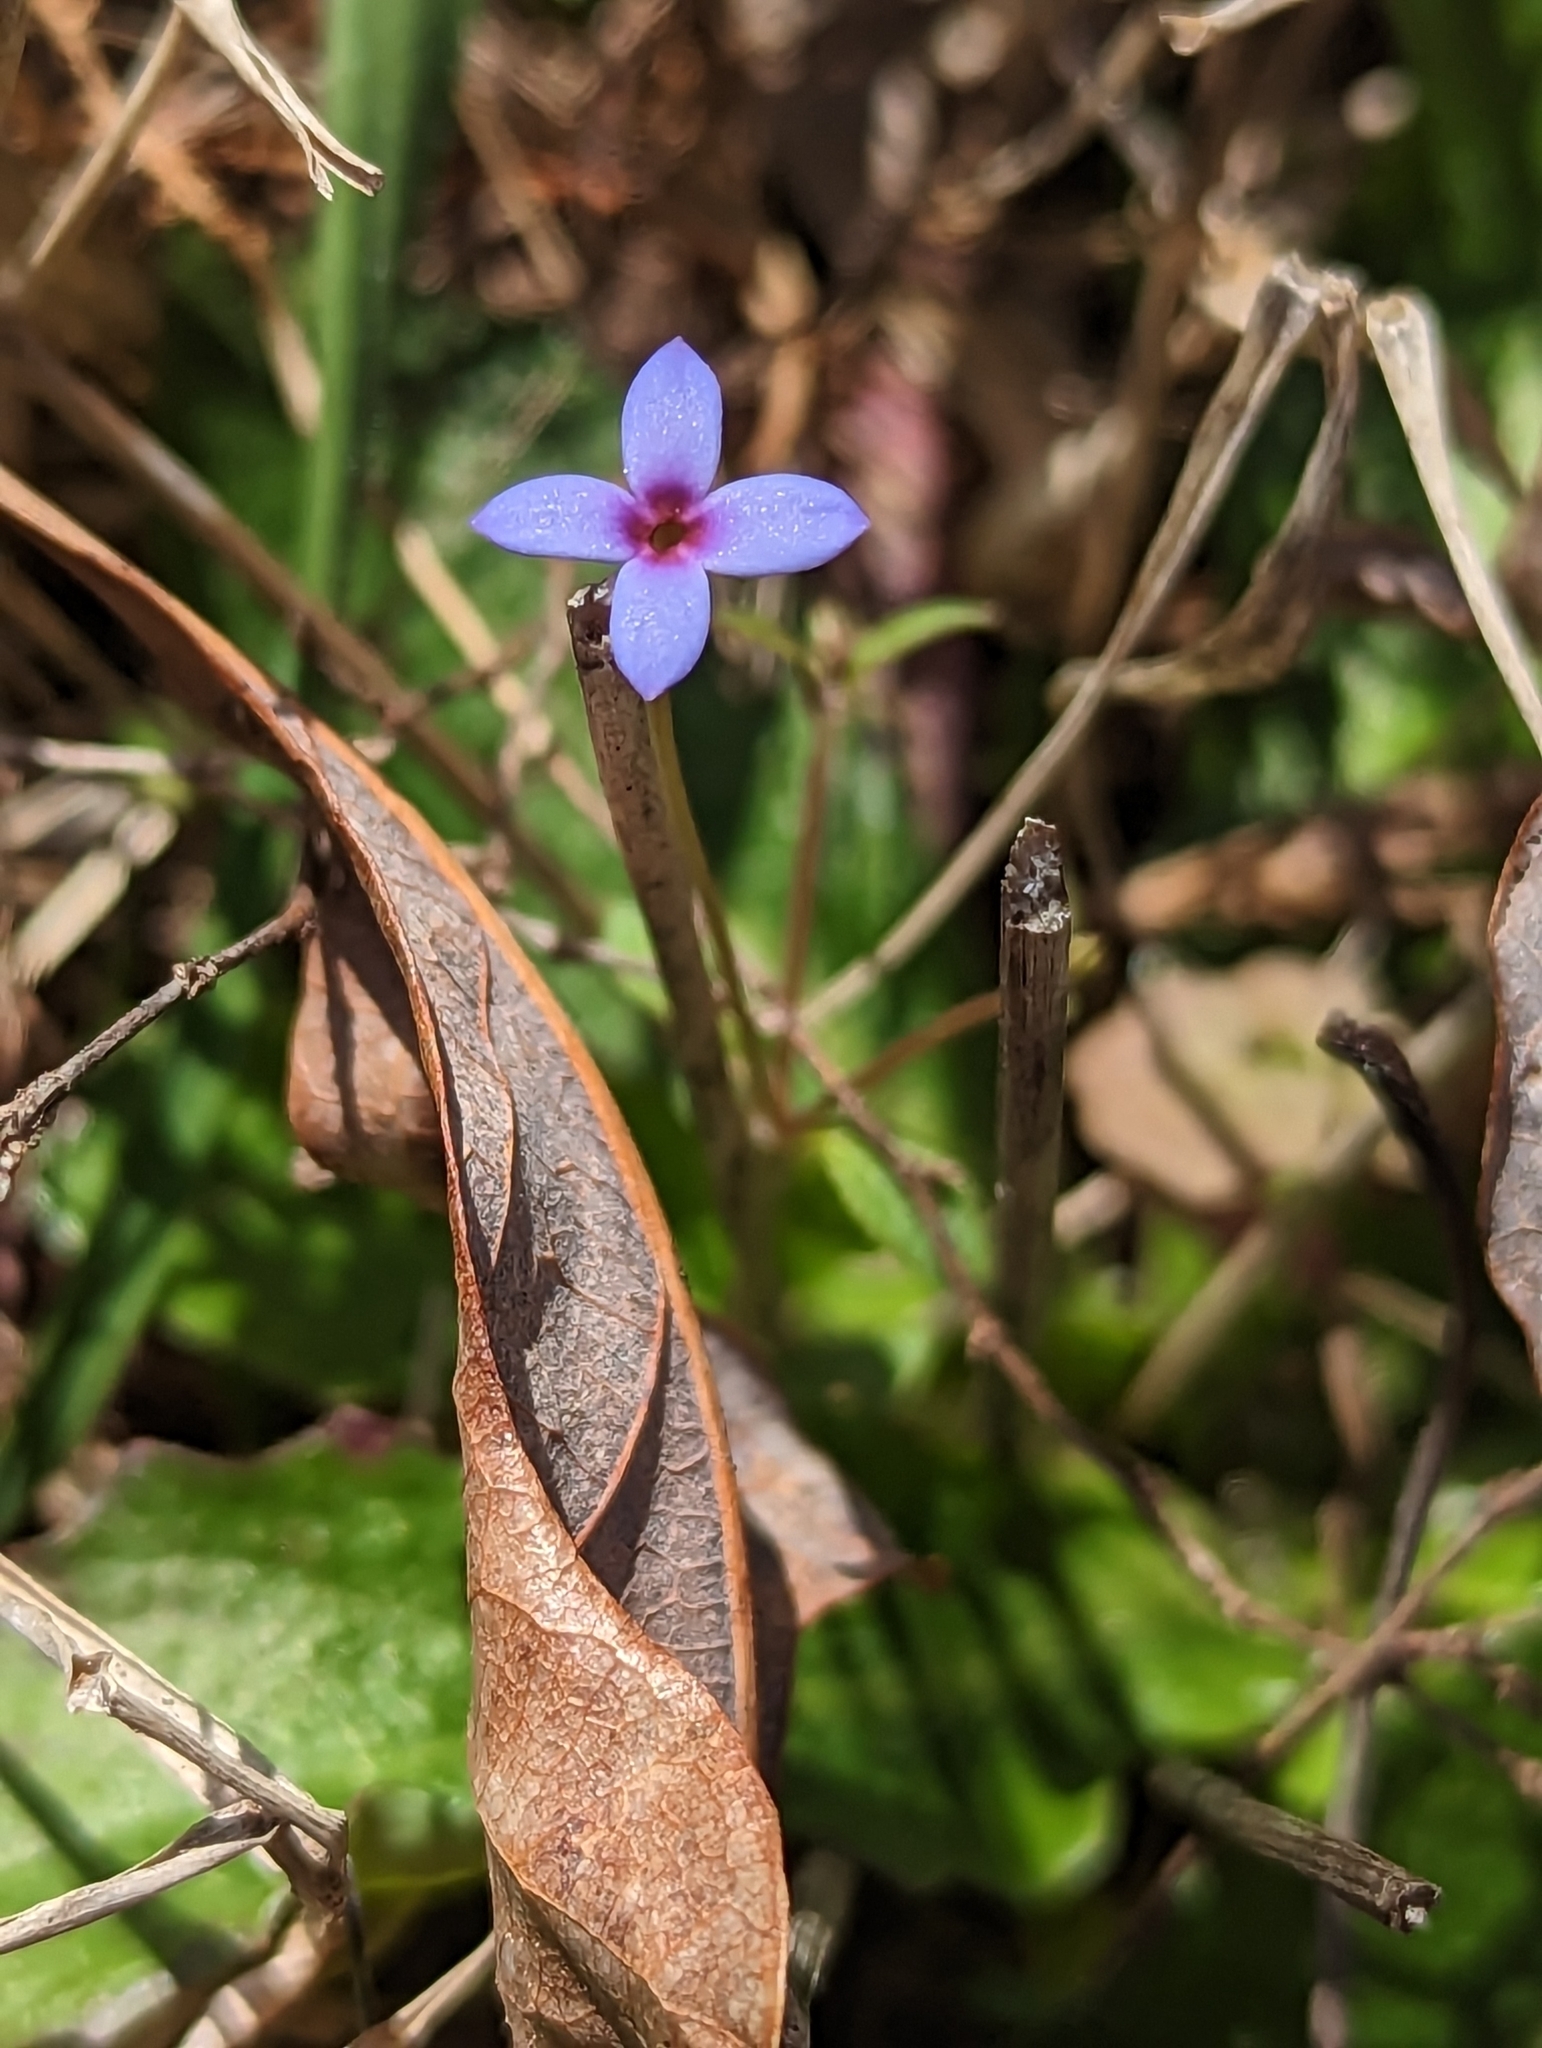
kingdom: Plantae
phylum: Tracheophyta
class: Magnoliopsida
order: Gentianales
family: Rubiaceae
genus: Houstonia
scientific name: Houstonia pusilla
